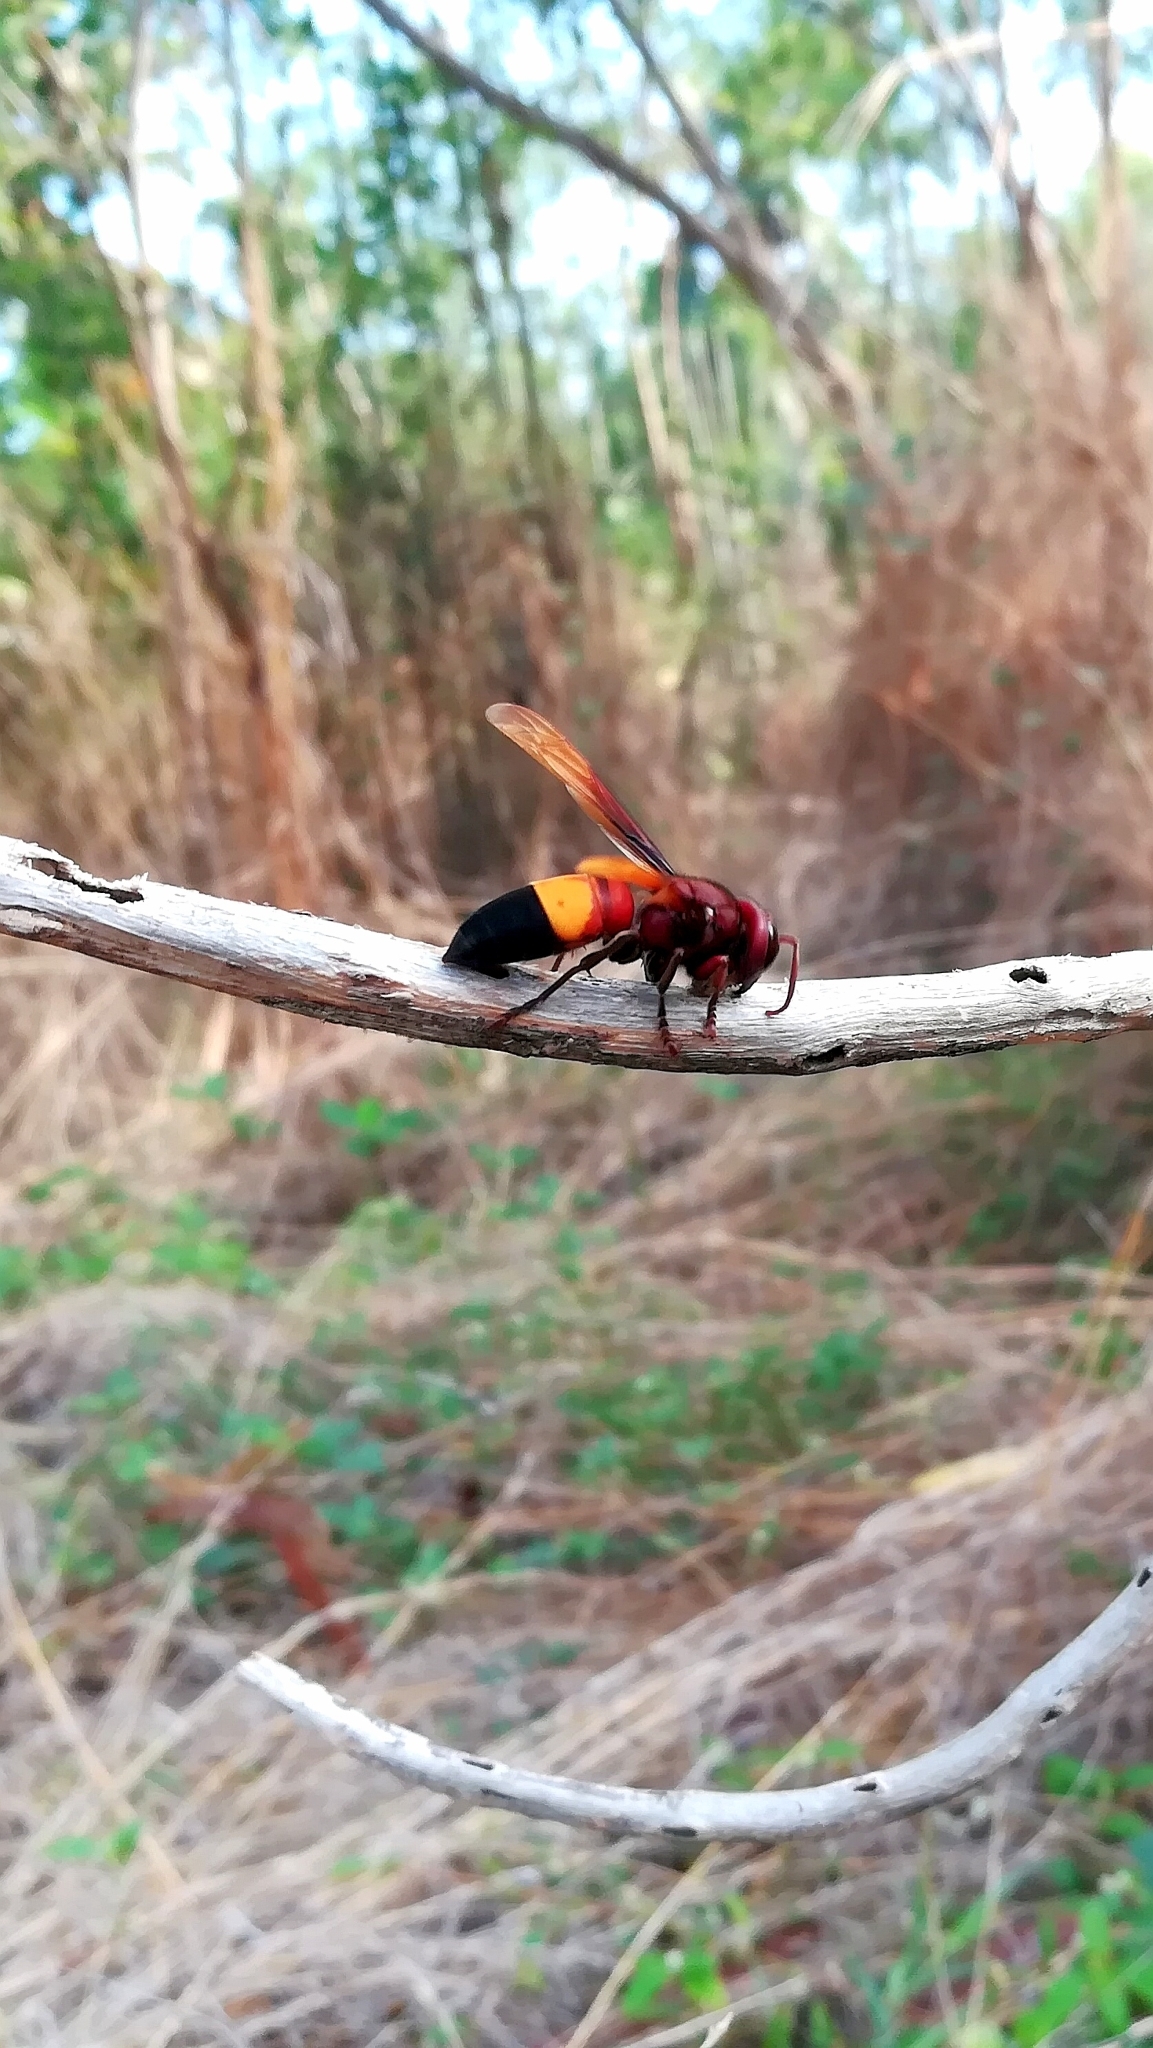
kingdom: Animalia
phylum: Arthropoda
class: Insecta
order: Hymenoptera
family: Vespidae
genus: Vespa
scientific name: Vespa affinis
